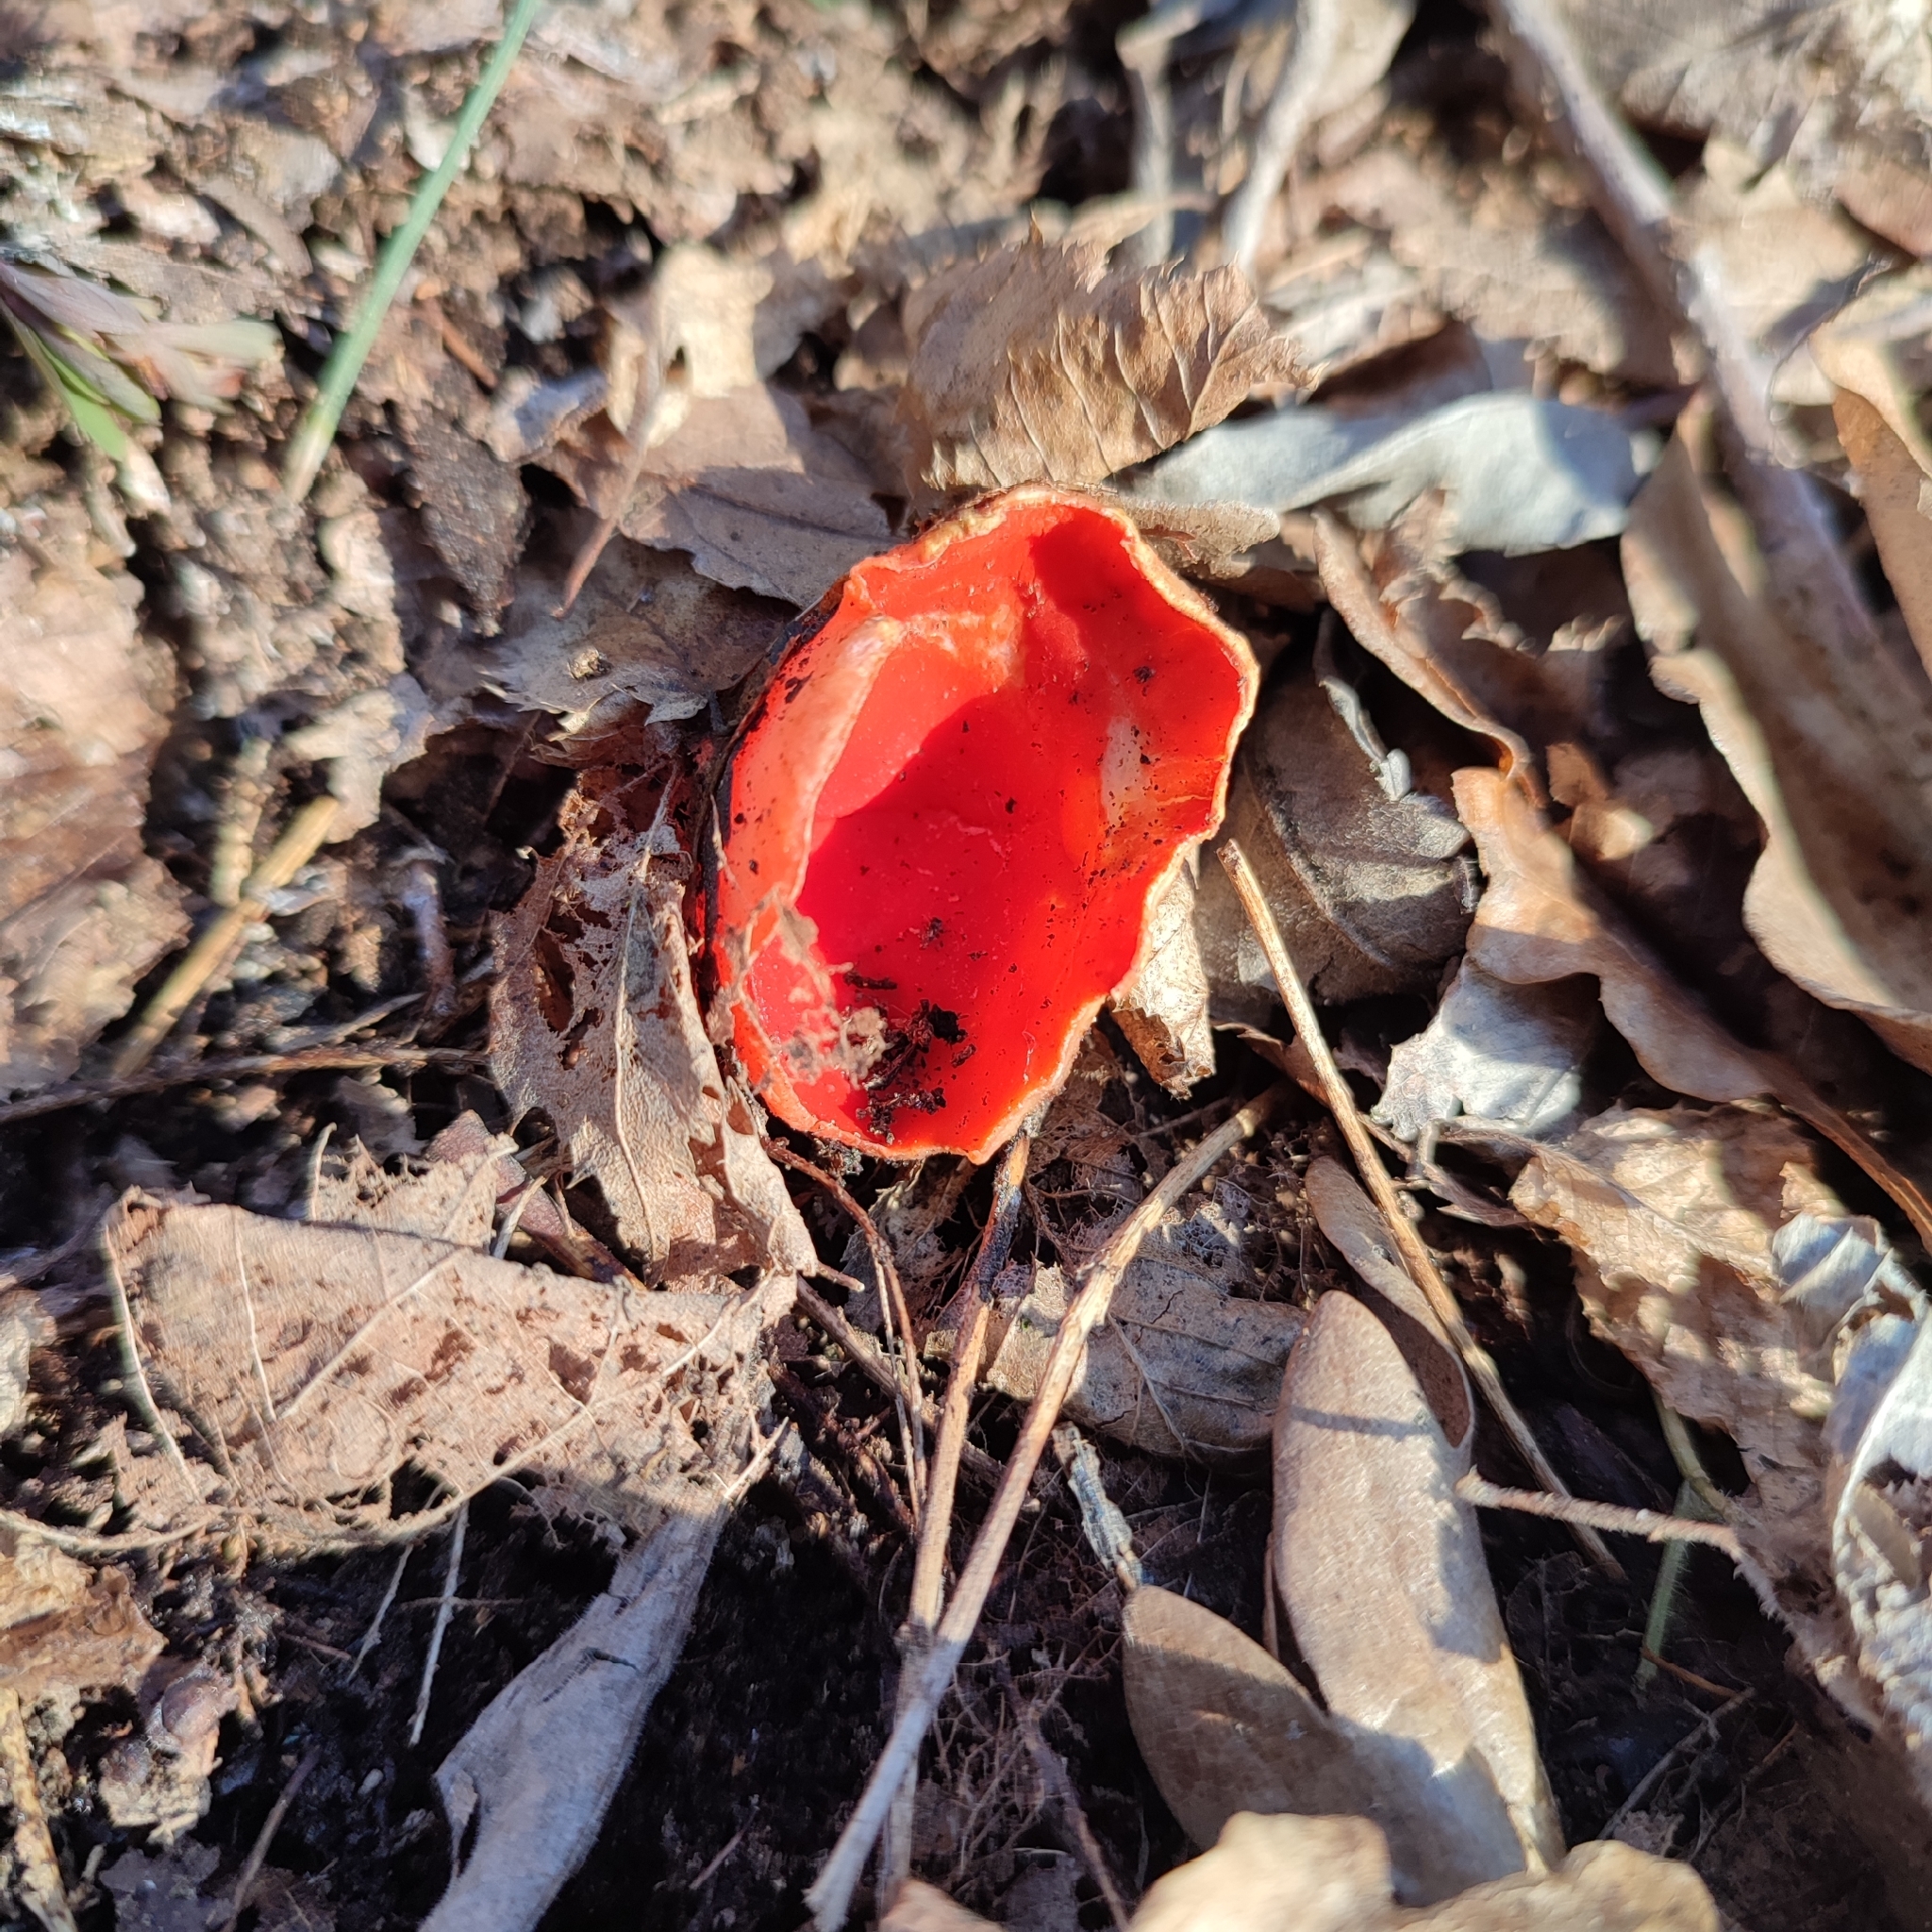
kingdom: Fungi
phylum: Ascomycota
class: Pezizomycetes
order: Pezizales
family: Sarcoscyphaceae
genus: Sarcoscypha
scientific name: Sarcoscypha
